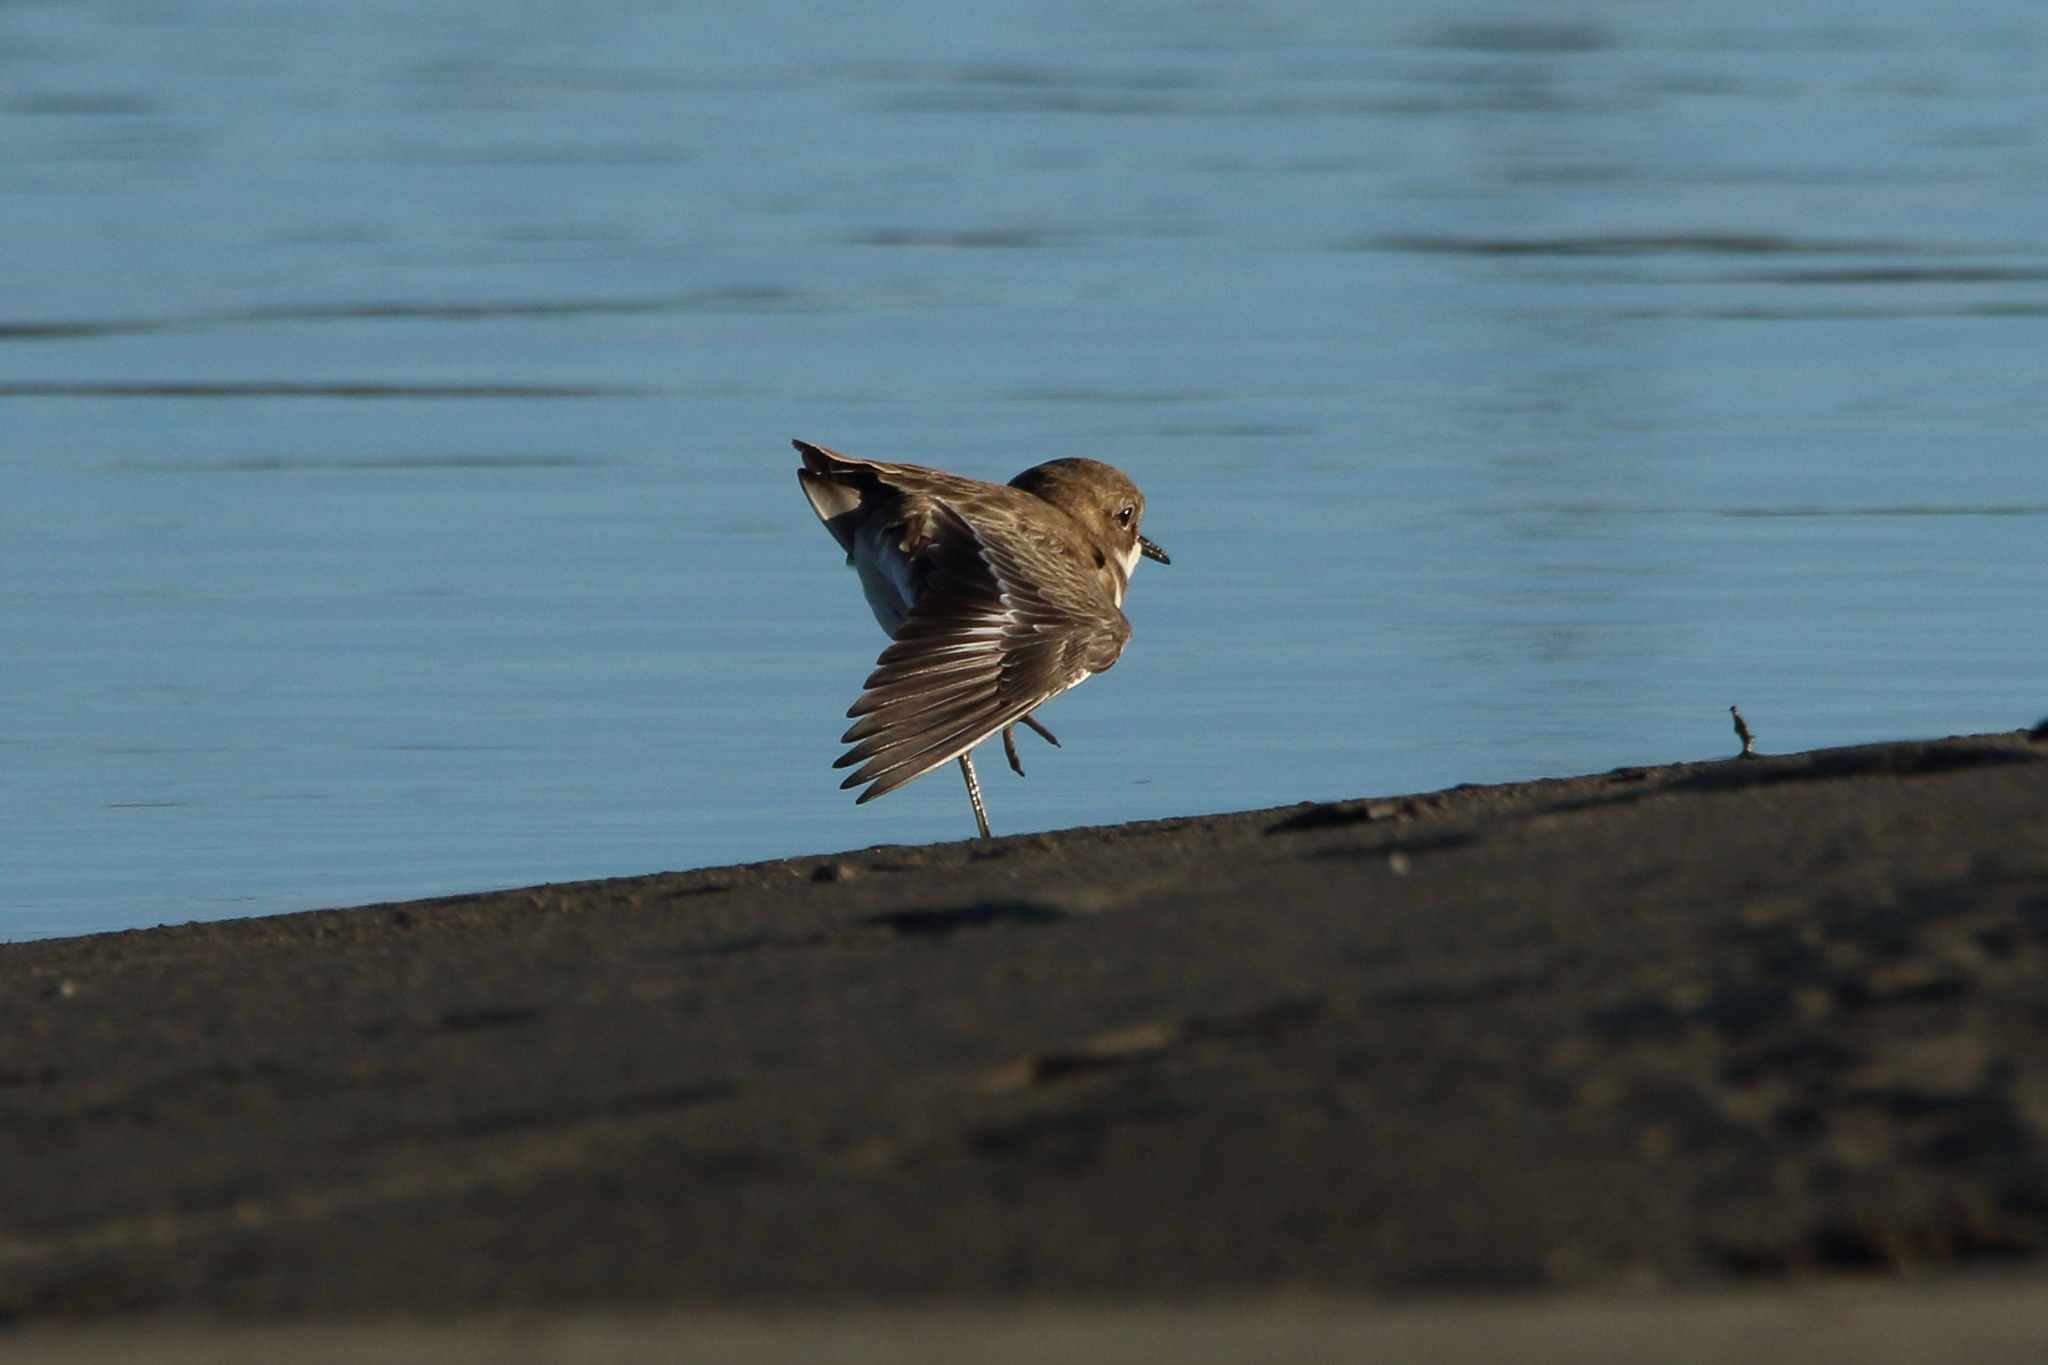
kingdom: Animalia
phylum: Chordata
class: Aves
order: Charadriiformes
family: Charadriidae
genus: Anarhynchus
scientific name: Anarhynchus
